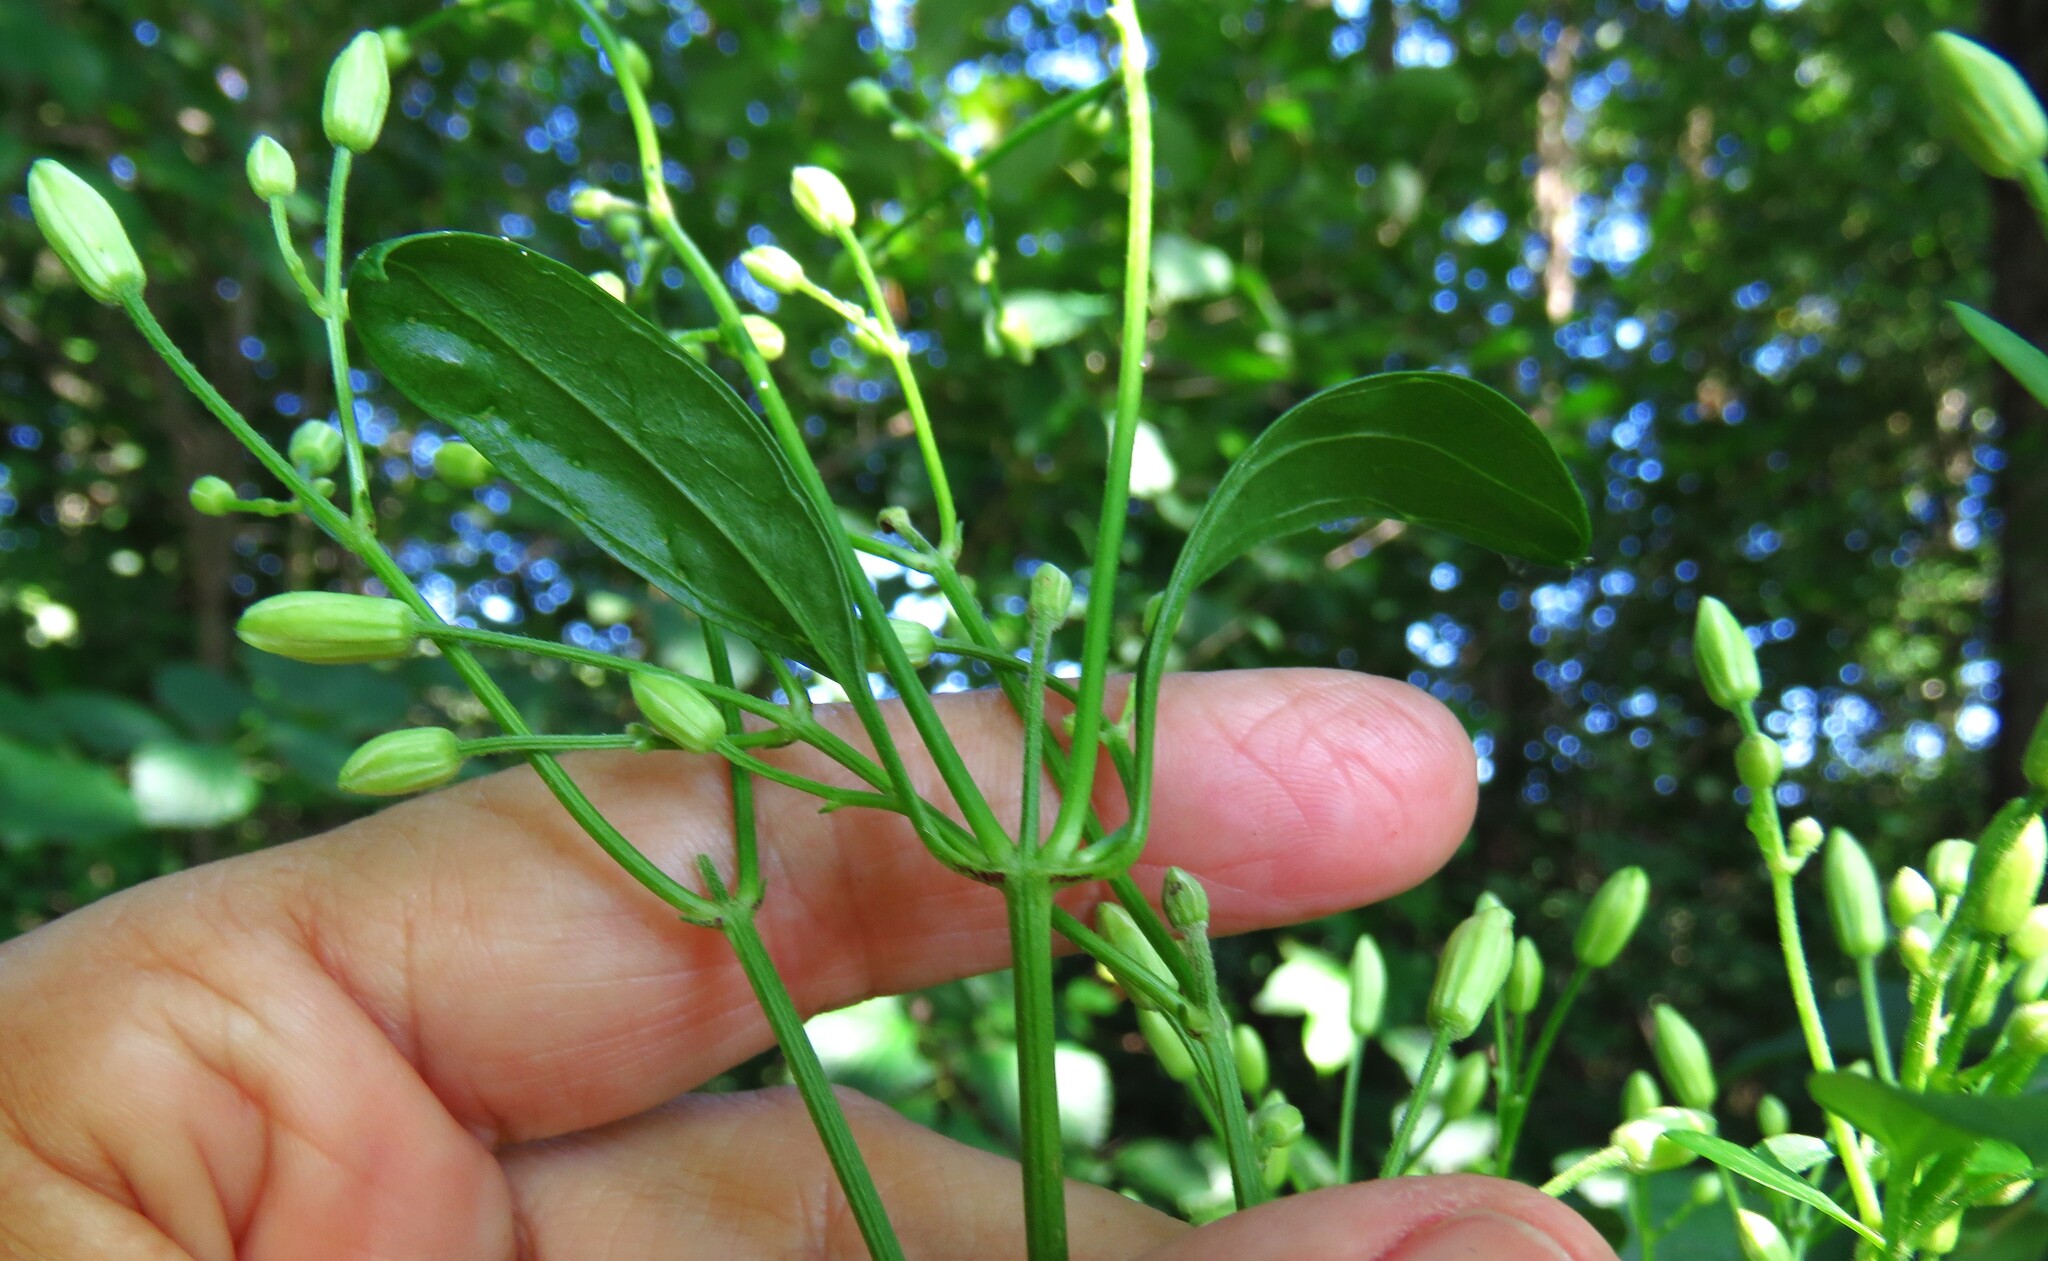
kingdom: Plantae
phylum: Tracheophyta
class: Magnoliopsida
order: Ranunculales
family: Ranunculaceae
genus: Clematis
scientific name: Clematis terniflora
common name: Sweet autumn clematis
